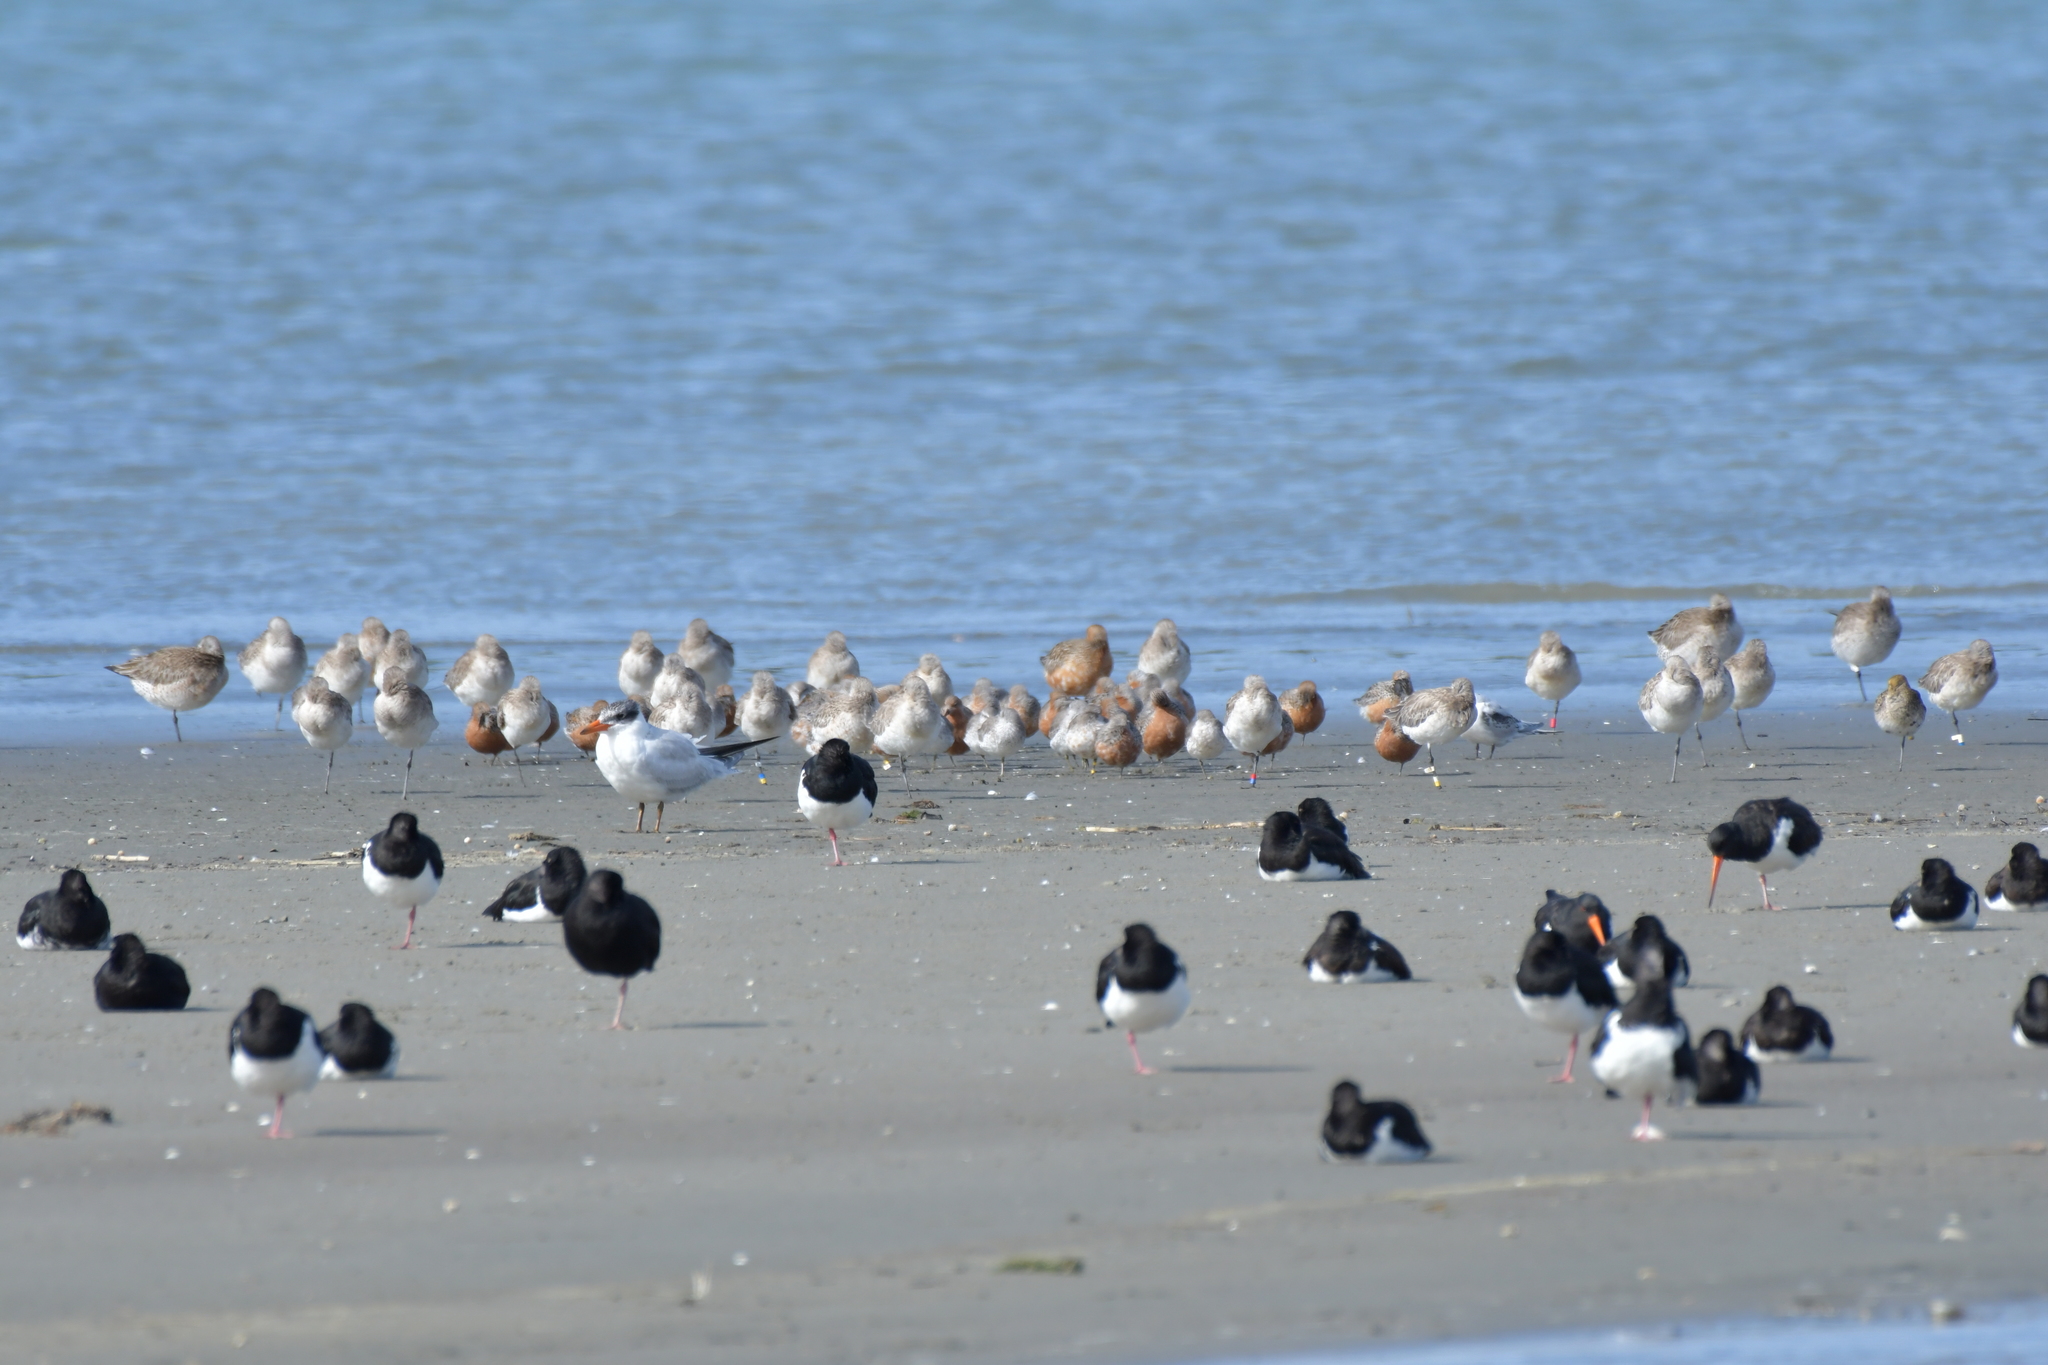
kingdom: Animalia
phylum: Chordata
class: Aves
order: Charadriiformes
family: Scolopacidae
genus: Limosa
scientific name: Limosa lapponica
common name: Bar-tailed godwit
